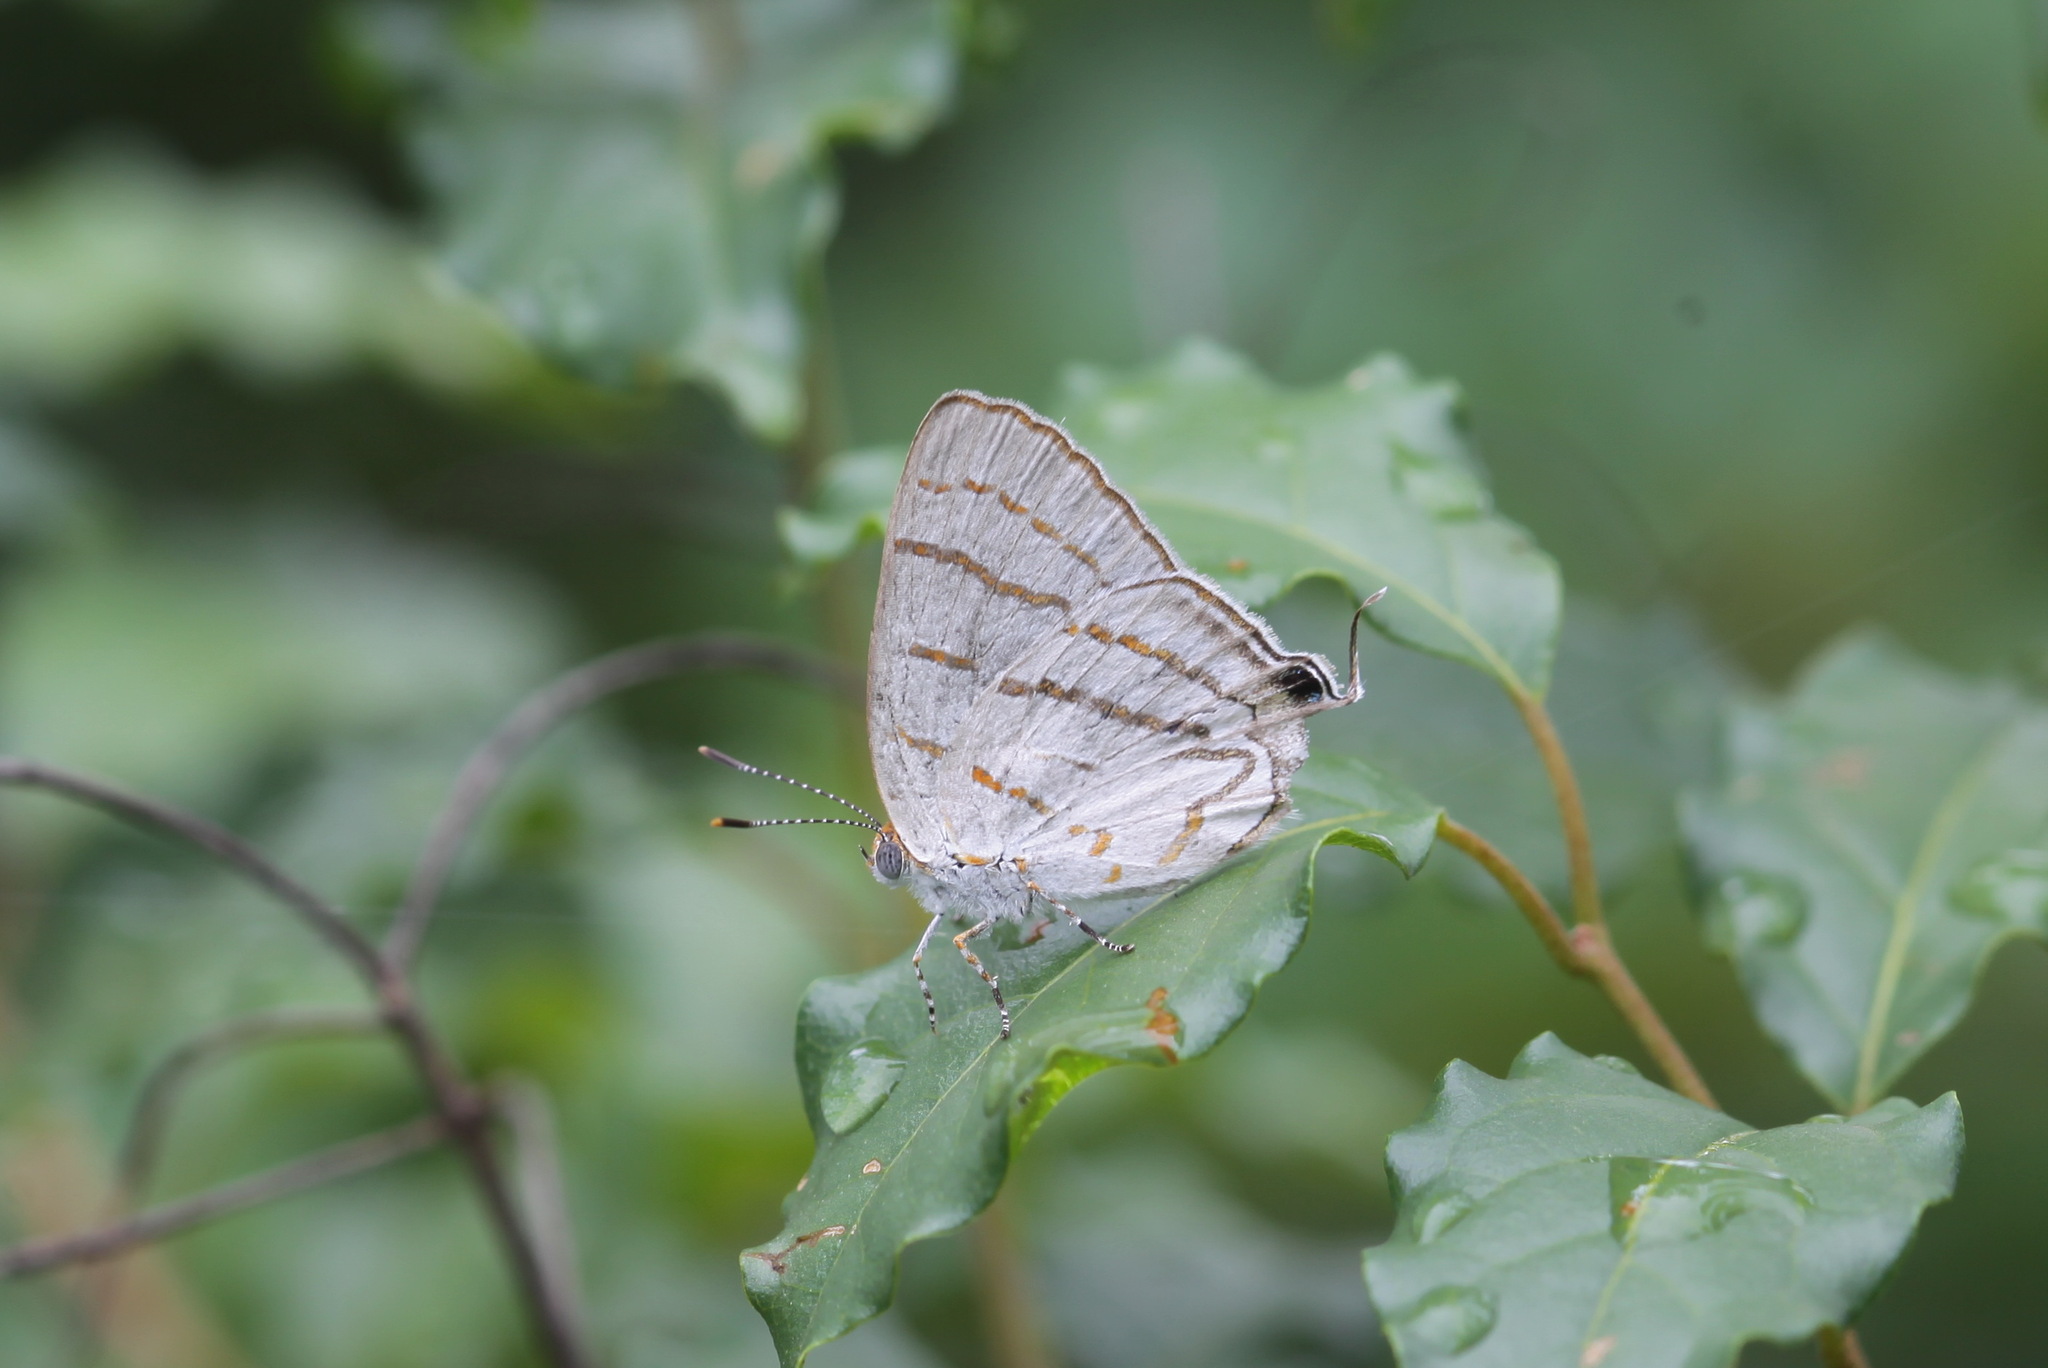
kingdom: Animalia
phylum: Arthropoda
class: Insecta
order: Lepidoptera
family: Lycaenidae
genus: Hemiolaus
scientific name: Hemiolaus caeculus
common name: Azure hairstreak
